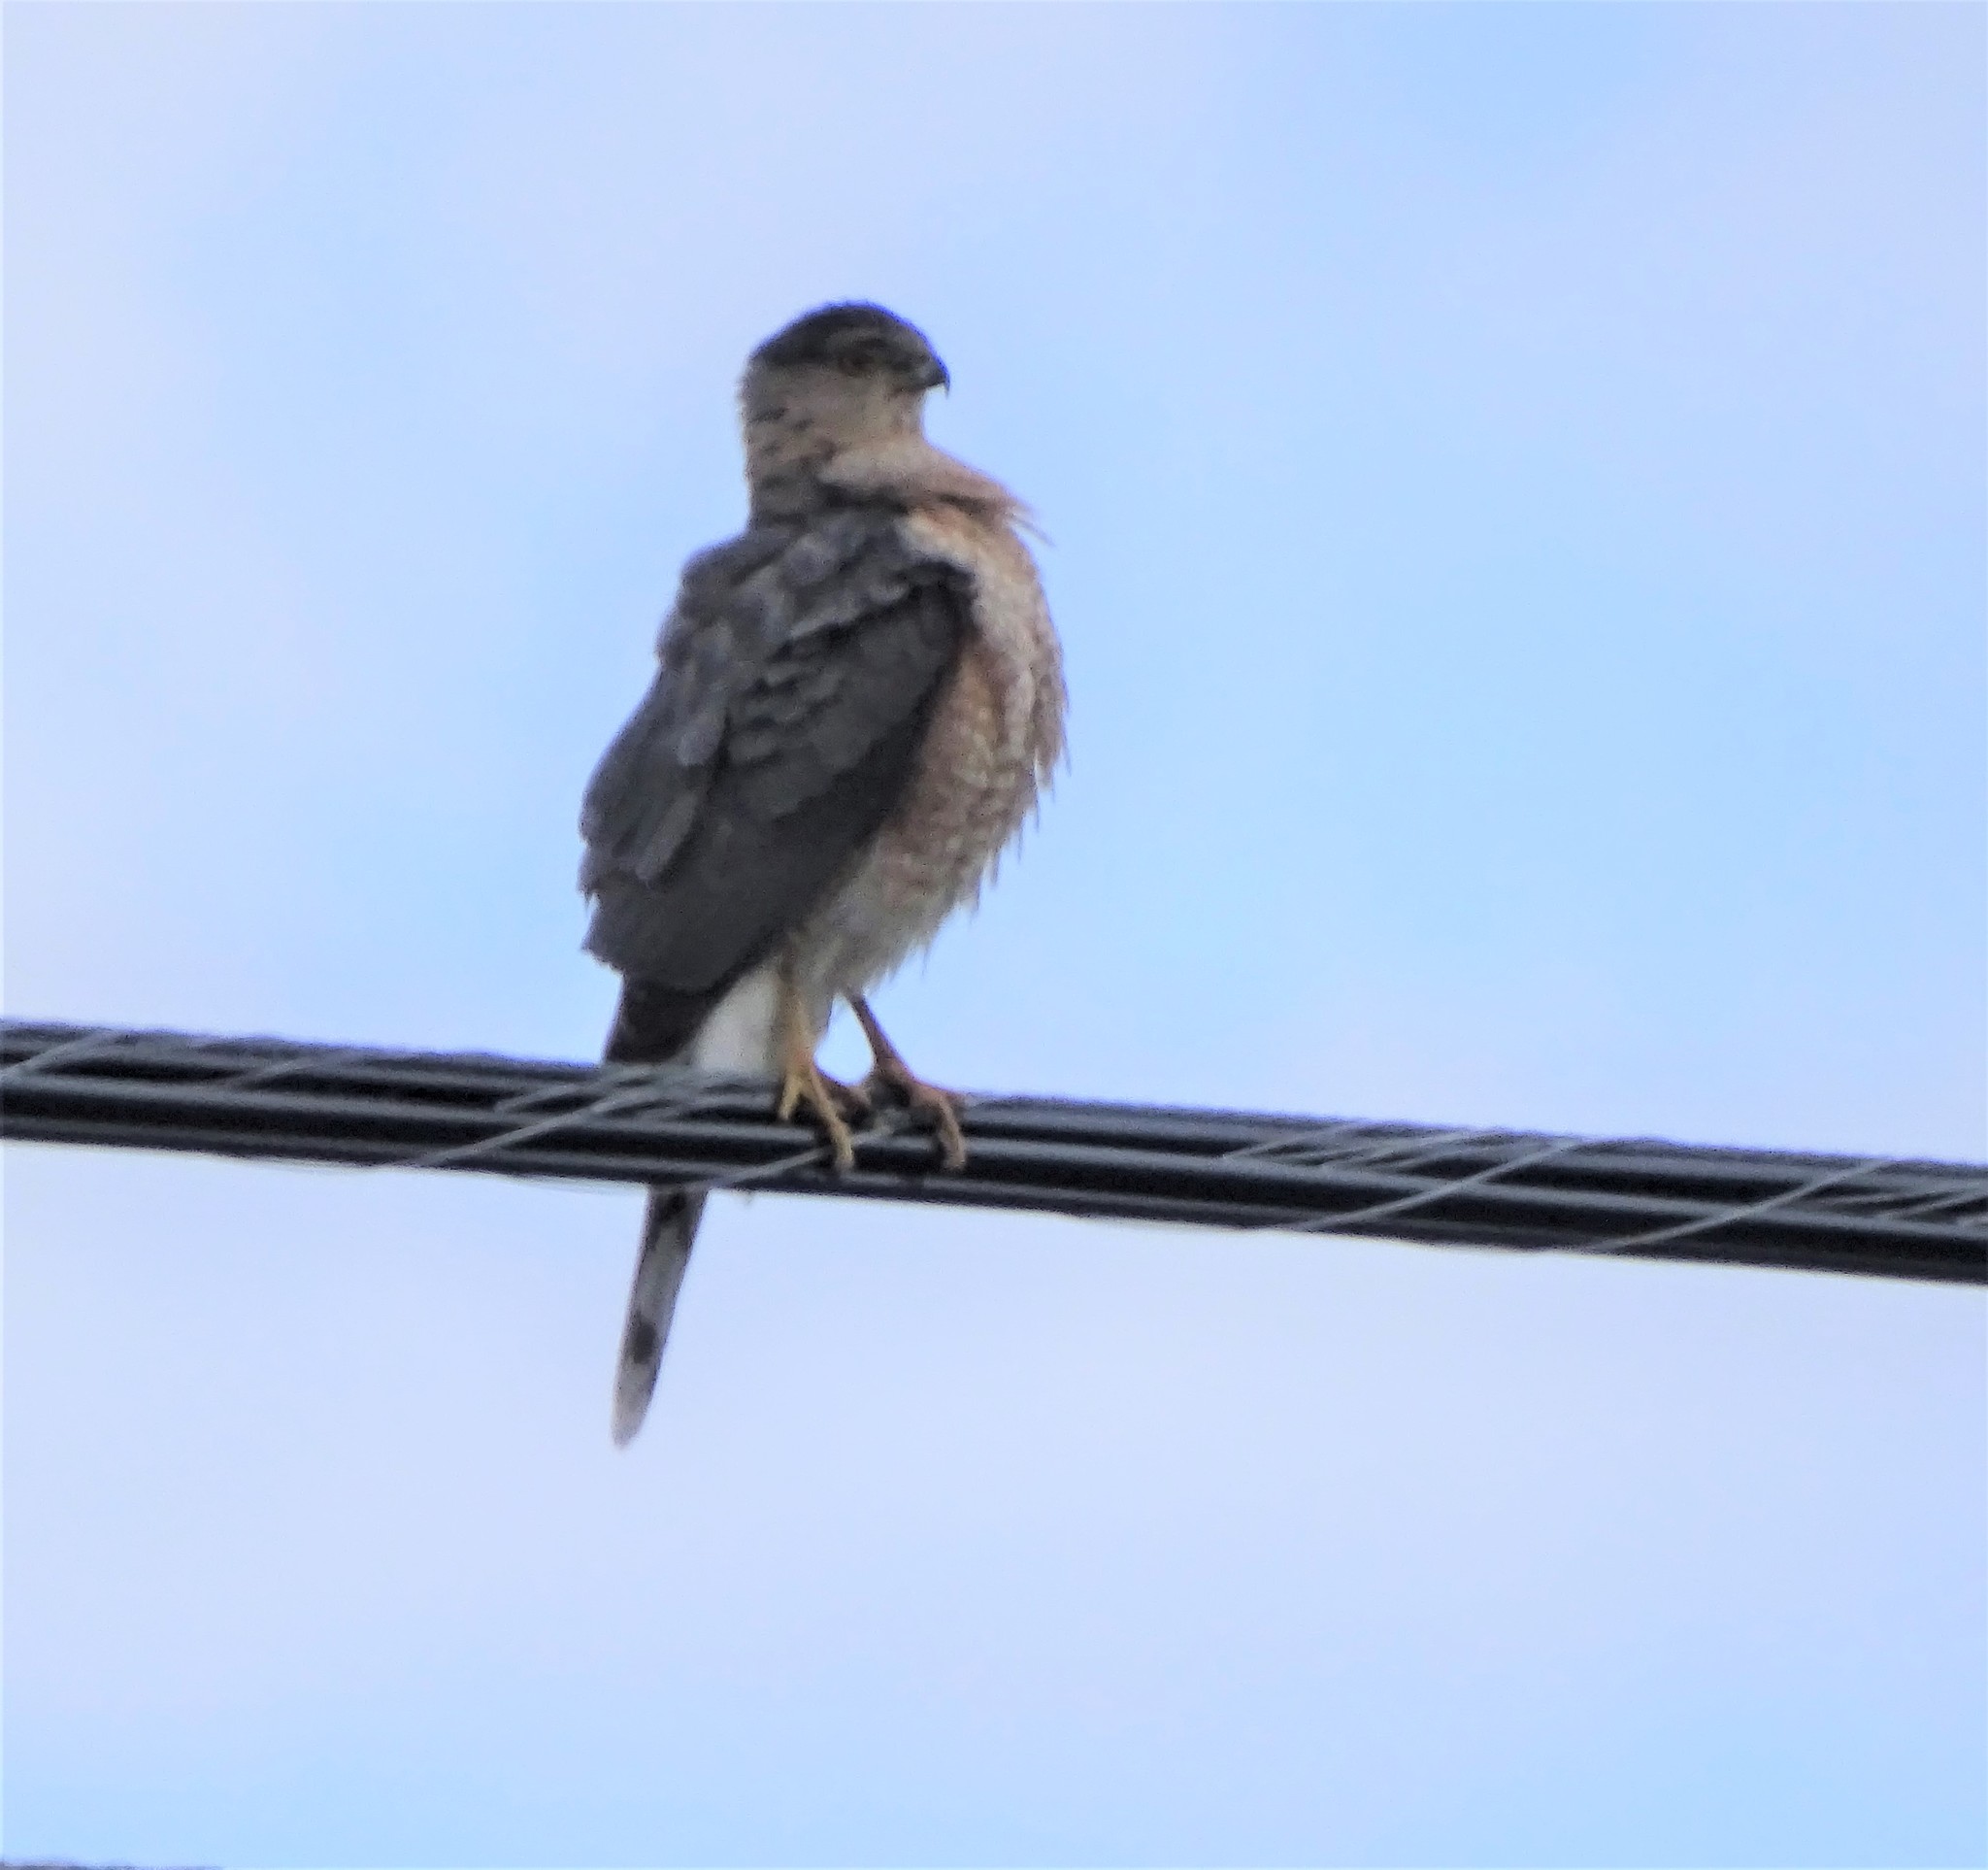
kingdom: Animalia
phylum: Chordata
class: Aves
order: Accipitriformes
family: Accipitridae
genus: Accipiter
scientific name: Accipiter cooperii
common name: Cooper's hawk
